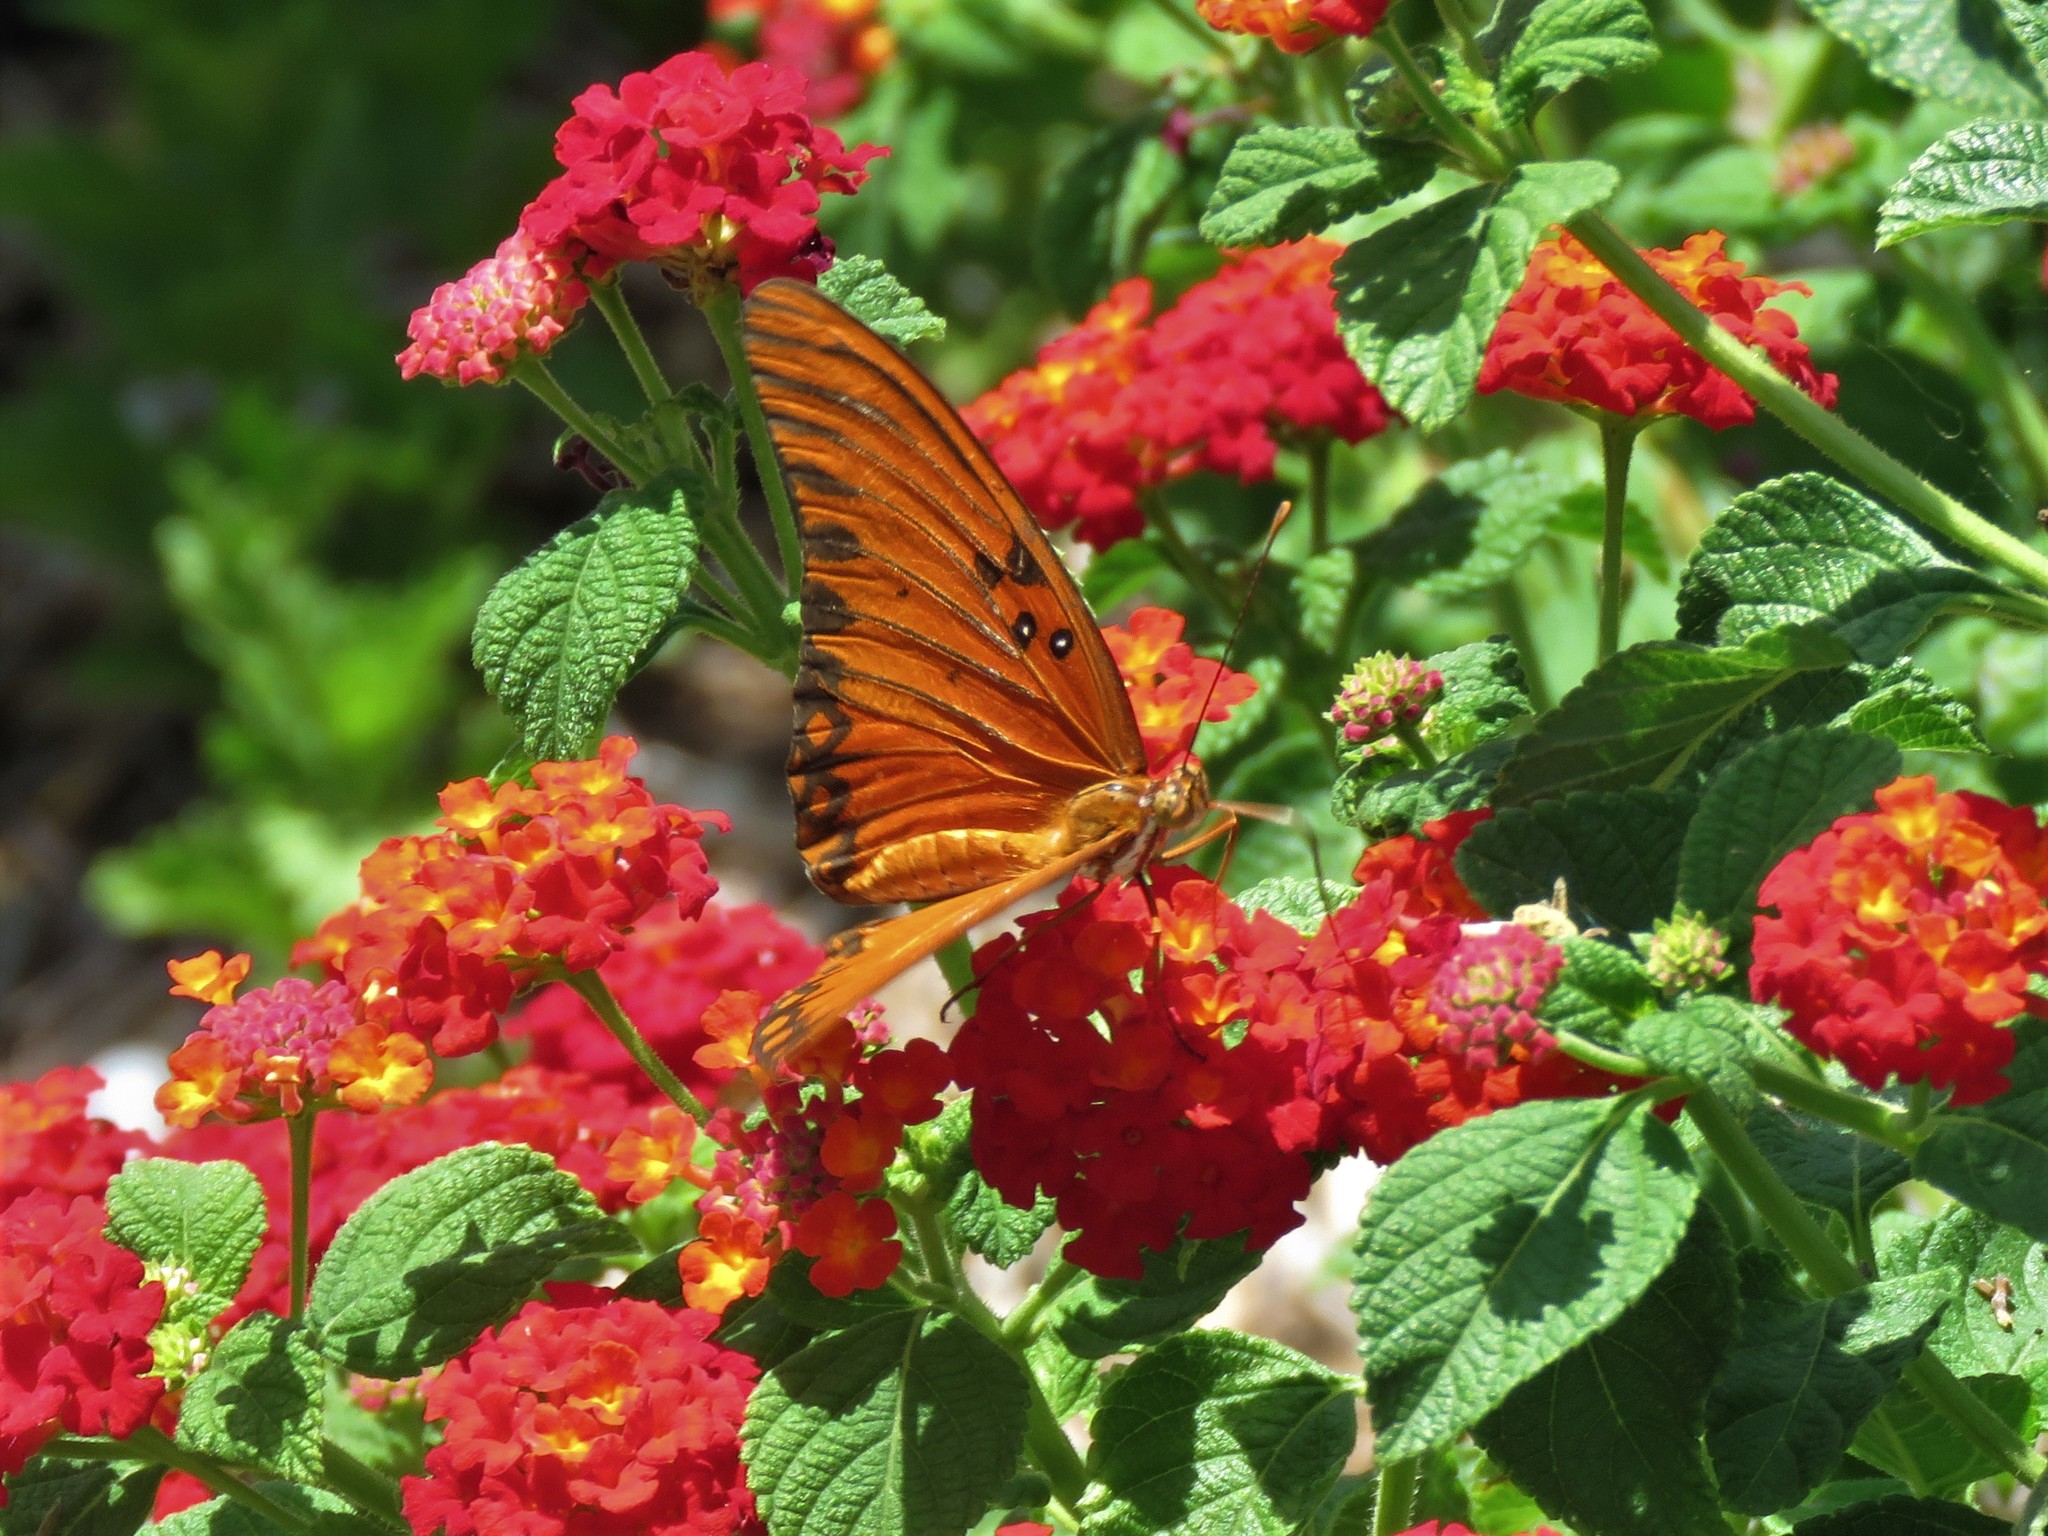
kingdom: Animalia
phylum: Arthropoda
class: Insecta
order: Lepidoptera
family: Nymphalidae
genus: Dione
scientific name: Dione vanillae
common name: Gulf fritillary
